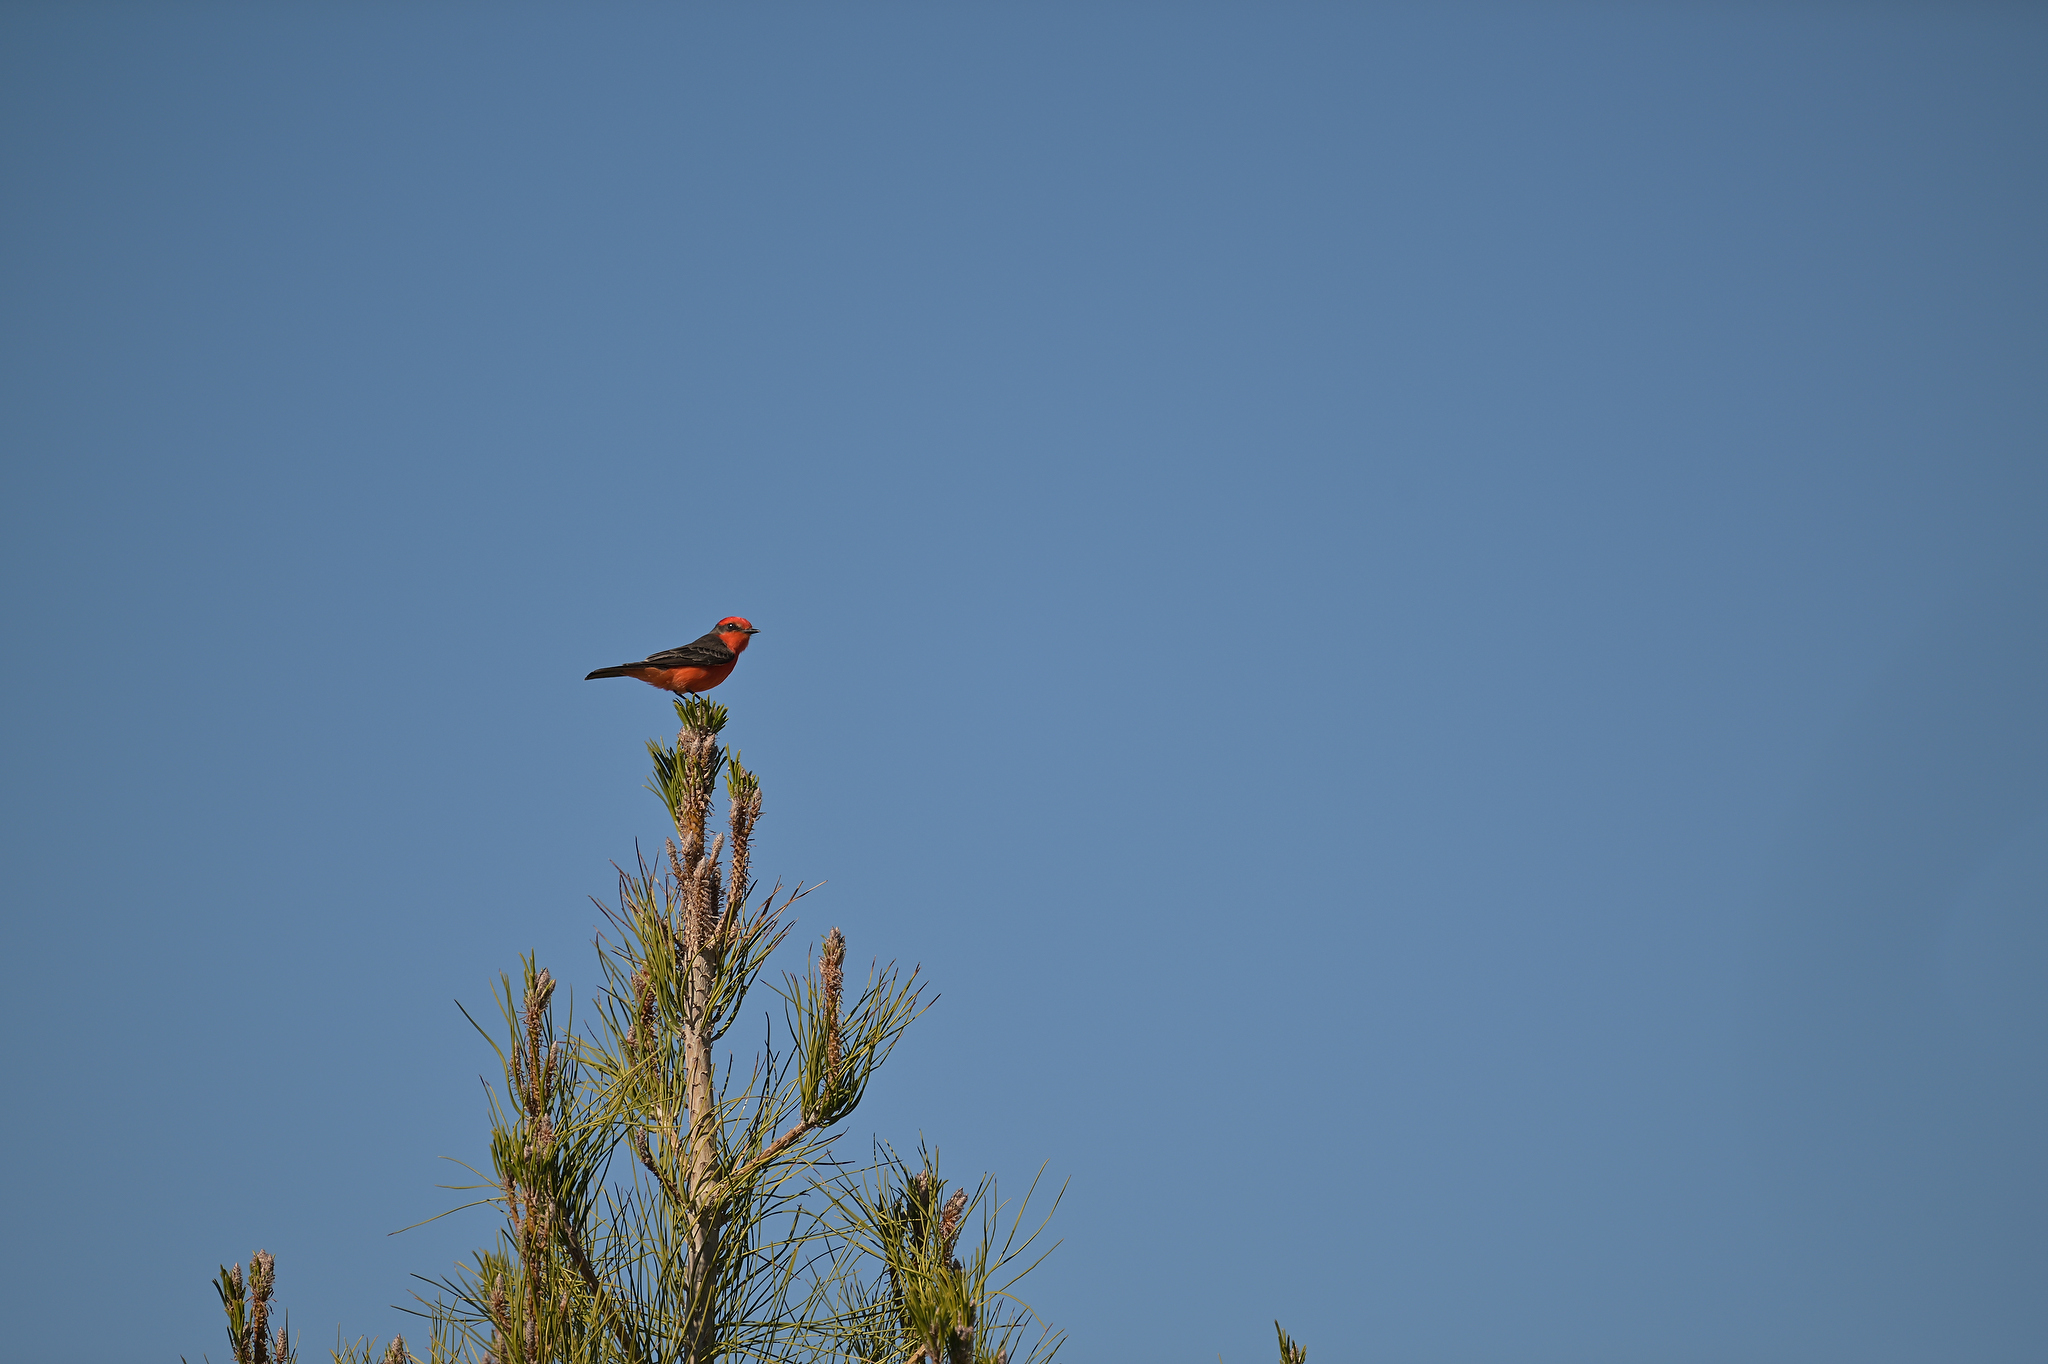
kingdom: Animalia
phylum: Chordata
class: Aves
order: Passeriformes
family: Tyrannidae
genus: Pyrocephalus
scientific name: Pyrocephalus rubinus
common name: Vermilion flycatcher
